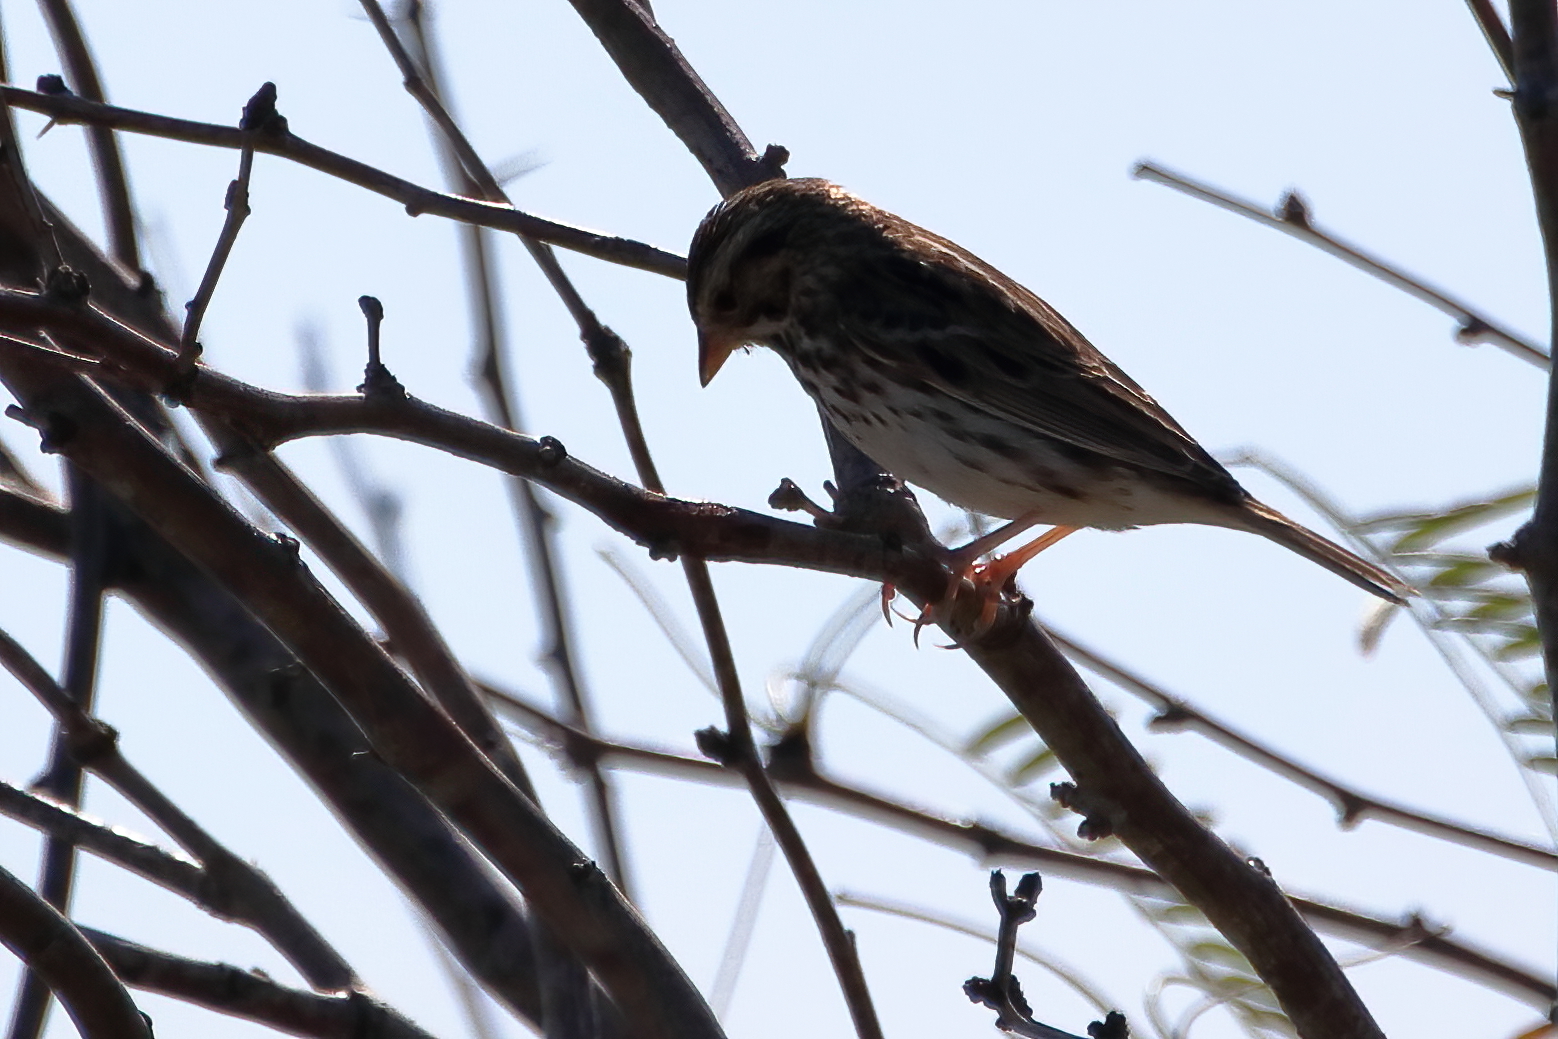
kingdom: Animalia
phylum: Chordata
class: Aves
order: Passeriformes
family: Passerellidae
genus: Passerculus
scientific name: Passerculus sandwichensis
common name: Savannah sparrow
